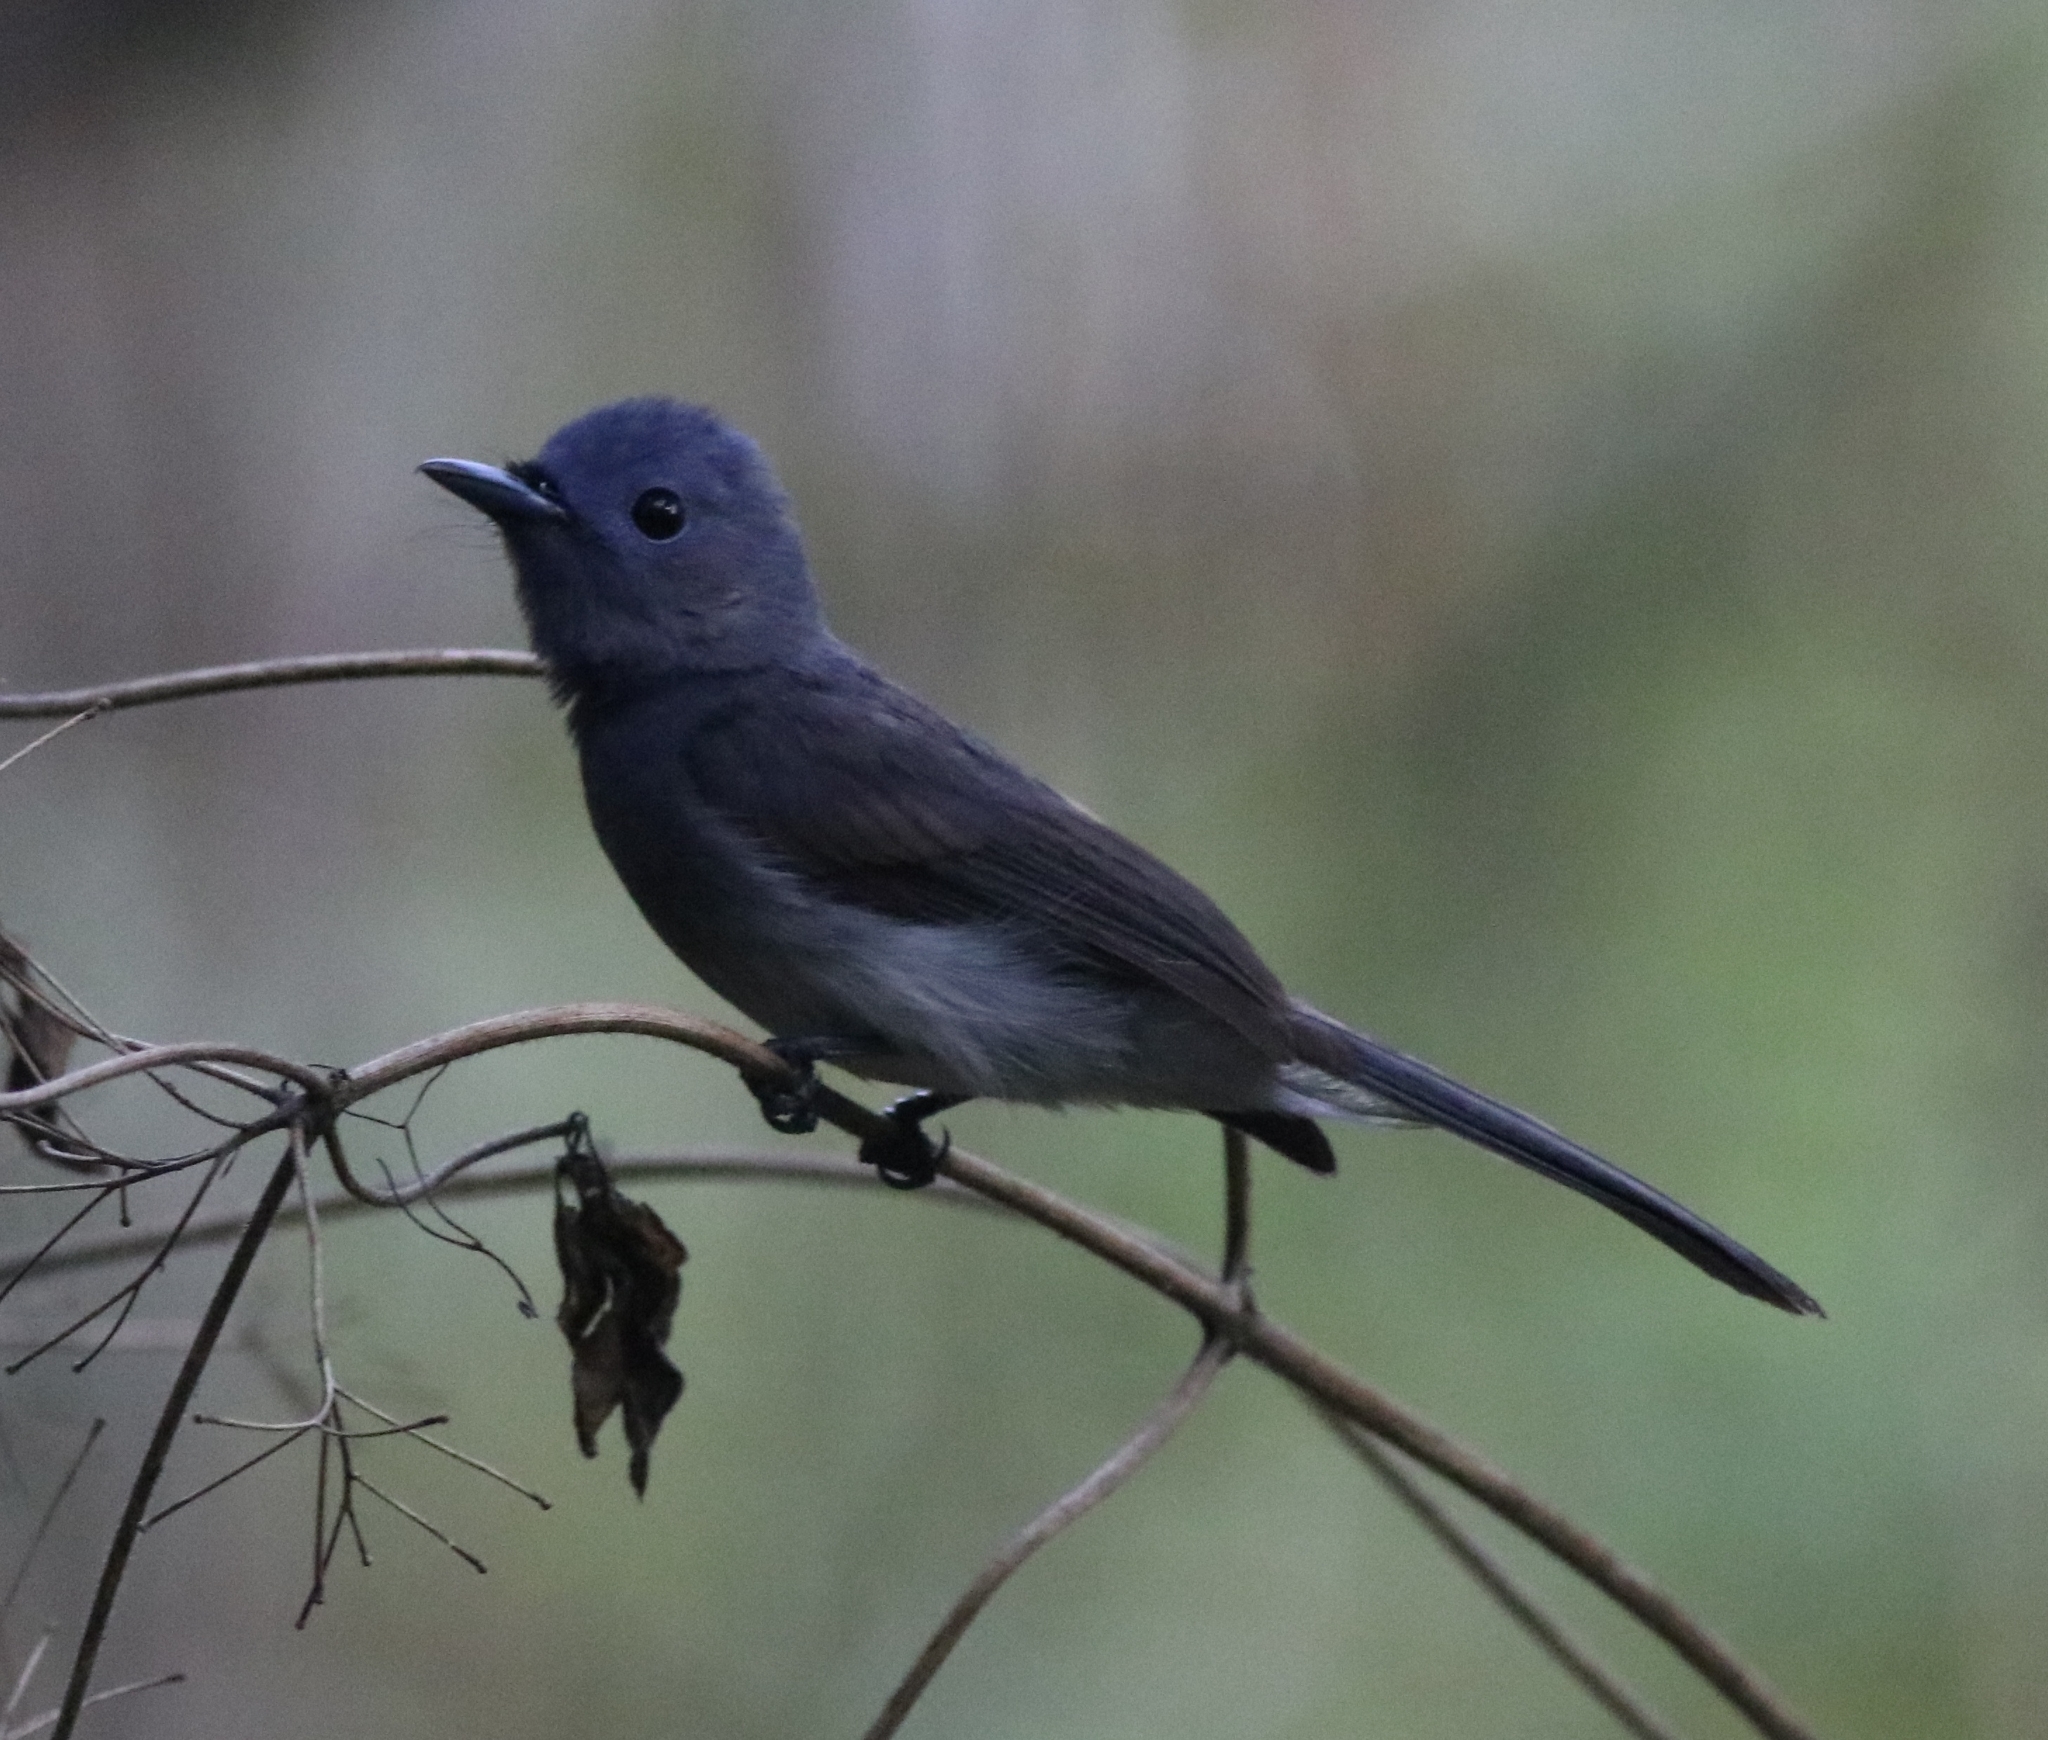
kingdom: Animalia
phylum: Chordata
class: Aves
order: Passeriformes
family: Monarchidae
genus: Hypothymis
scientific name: Hypothymis azurea
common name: Black-naped monarch
